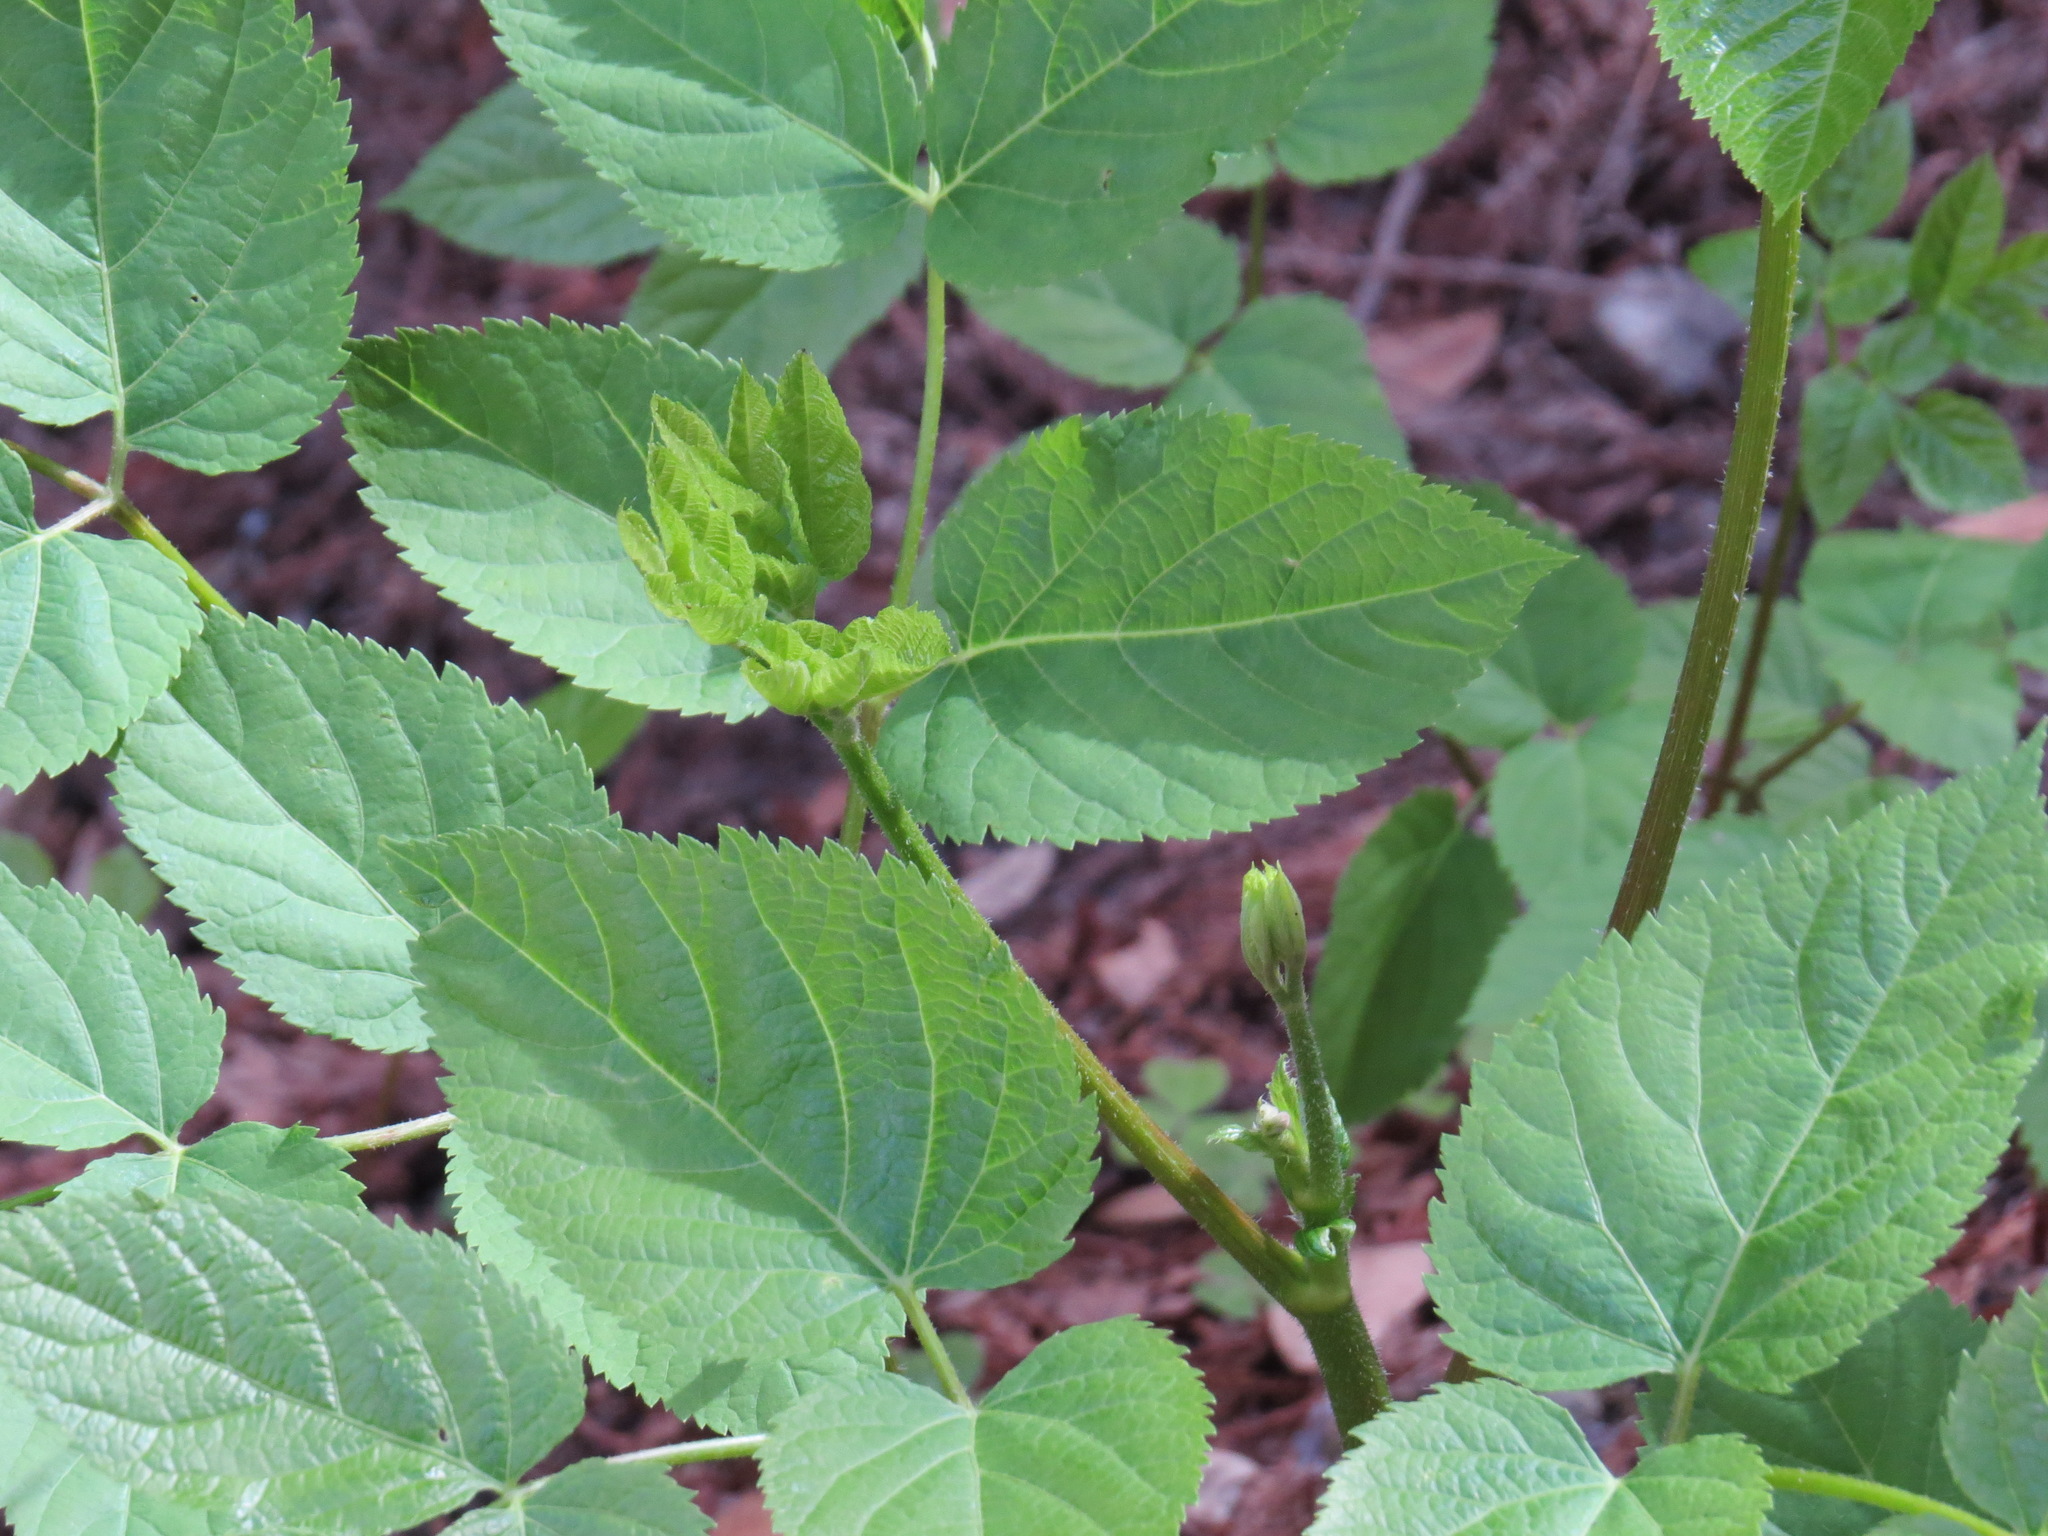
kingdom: Plantae
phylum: Tracheophyta
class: Magnoliopsida
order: Apiales
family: Araliaceae
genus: Aralia
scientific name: Aralia californica
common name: California-ginseng
